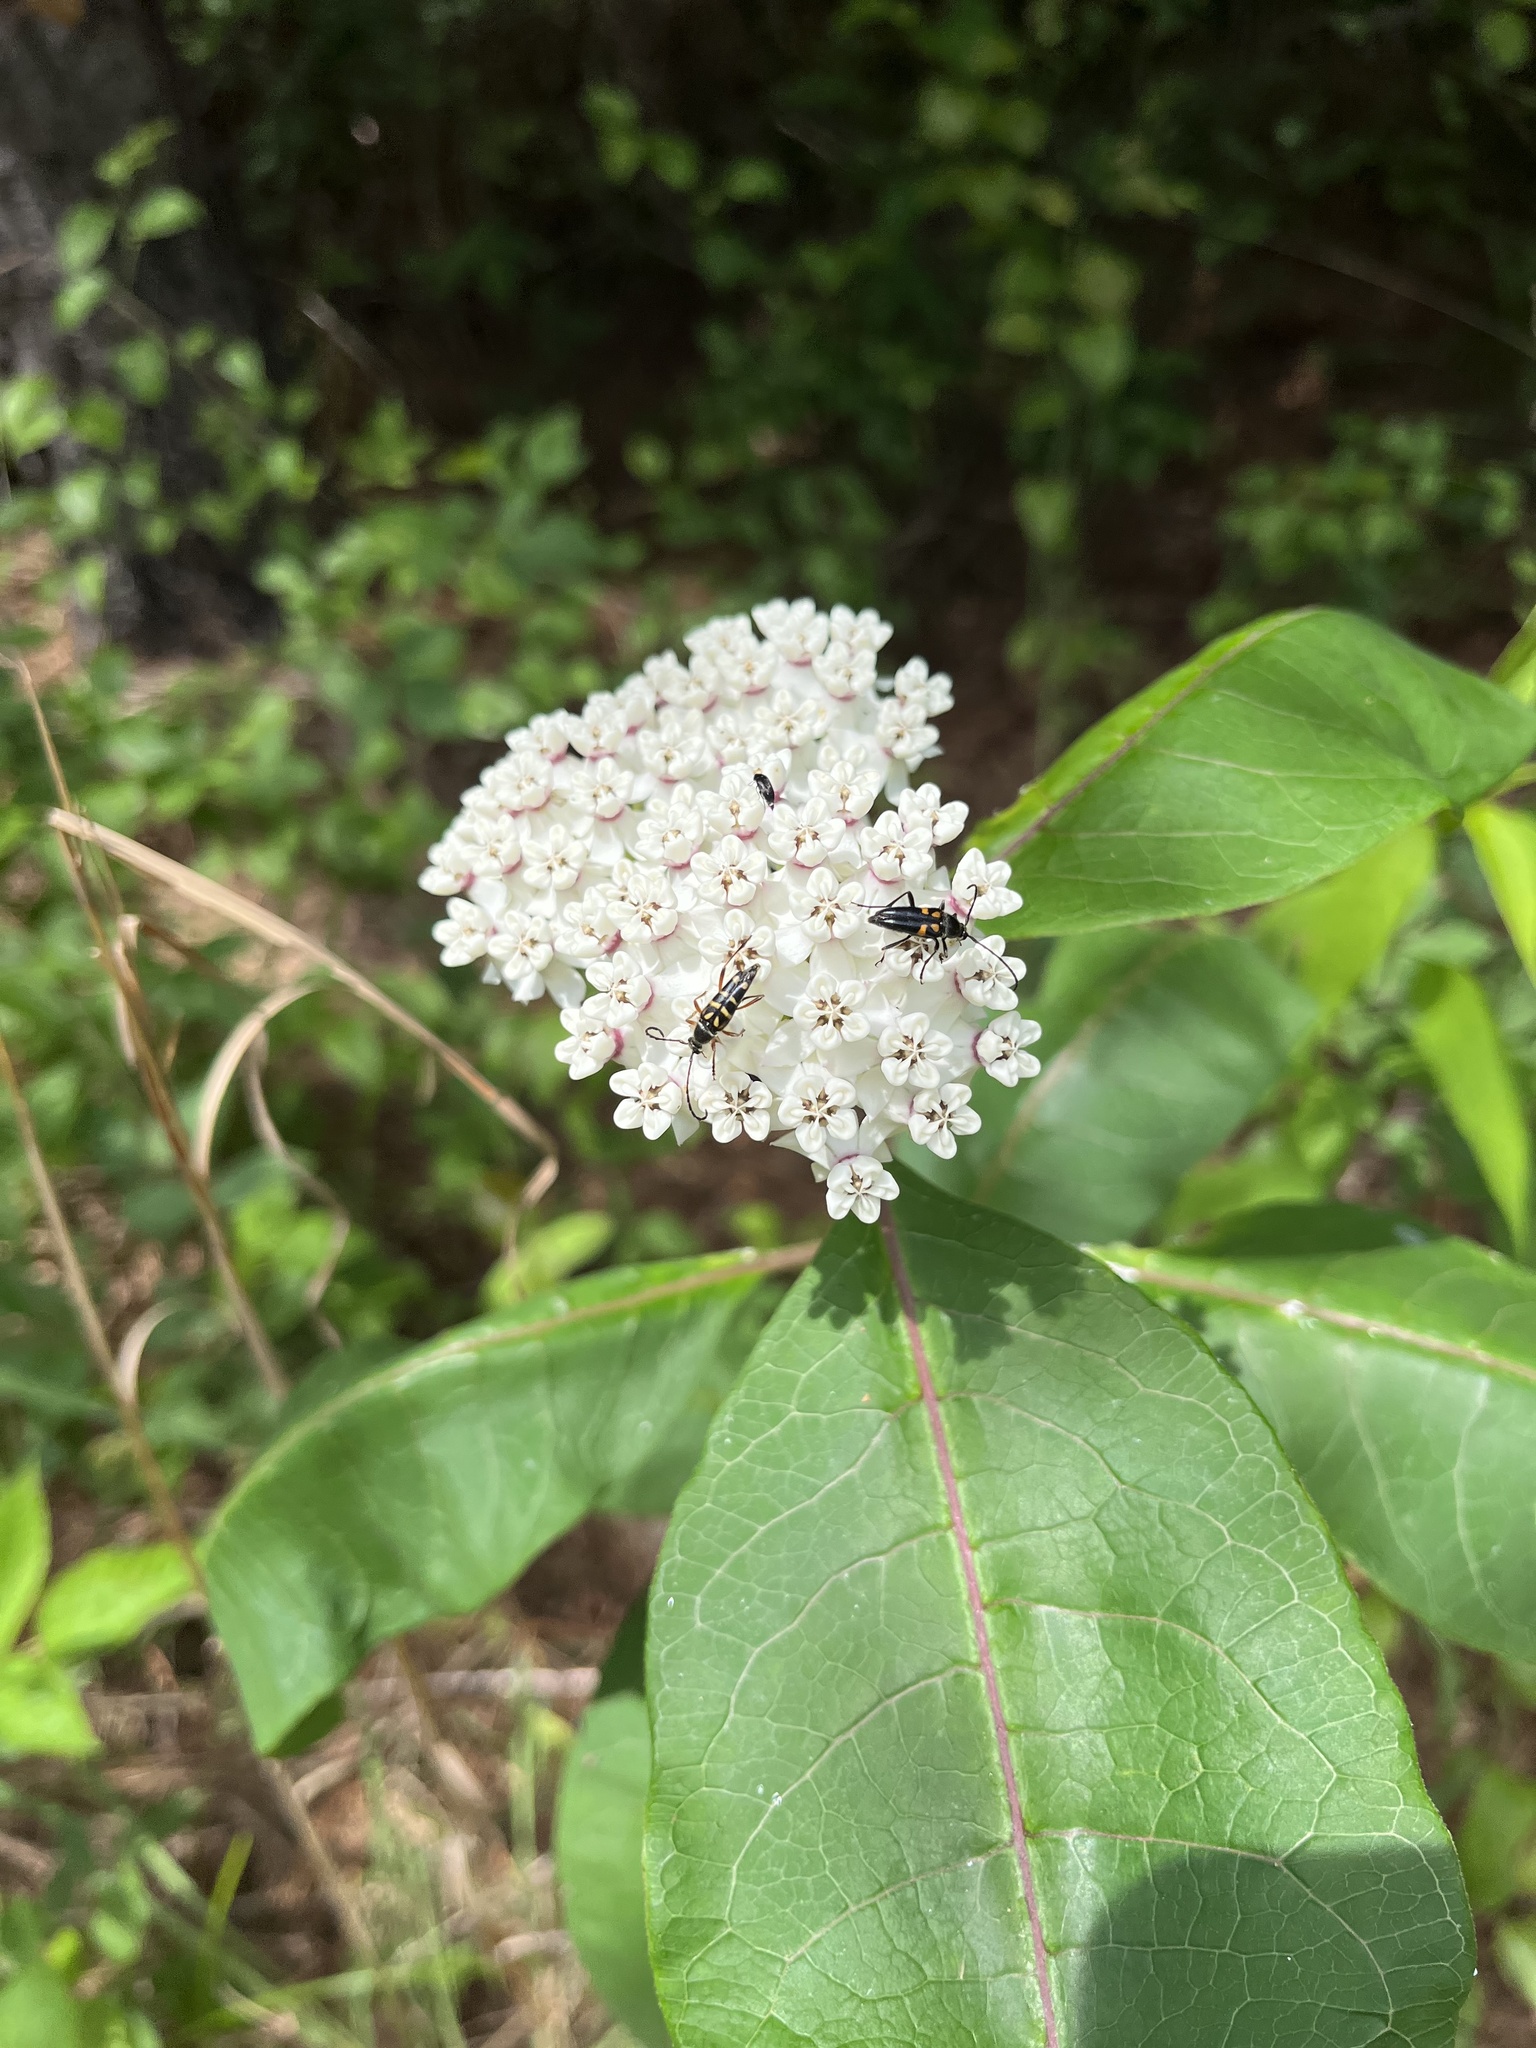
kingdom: Plantae
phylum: Tracheophyta
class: Magnoliopsida
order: Gentianales
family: Apocynaceae
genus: Asclepias
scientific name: Asclepias variegata
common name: Variegated milkweed
